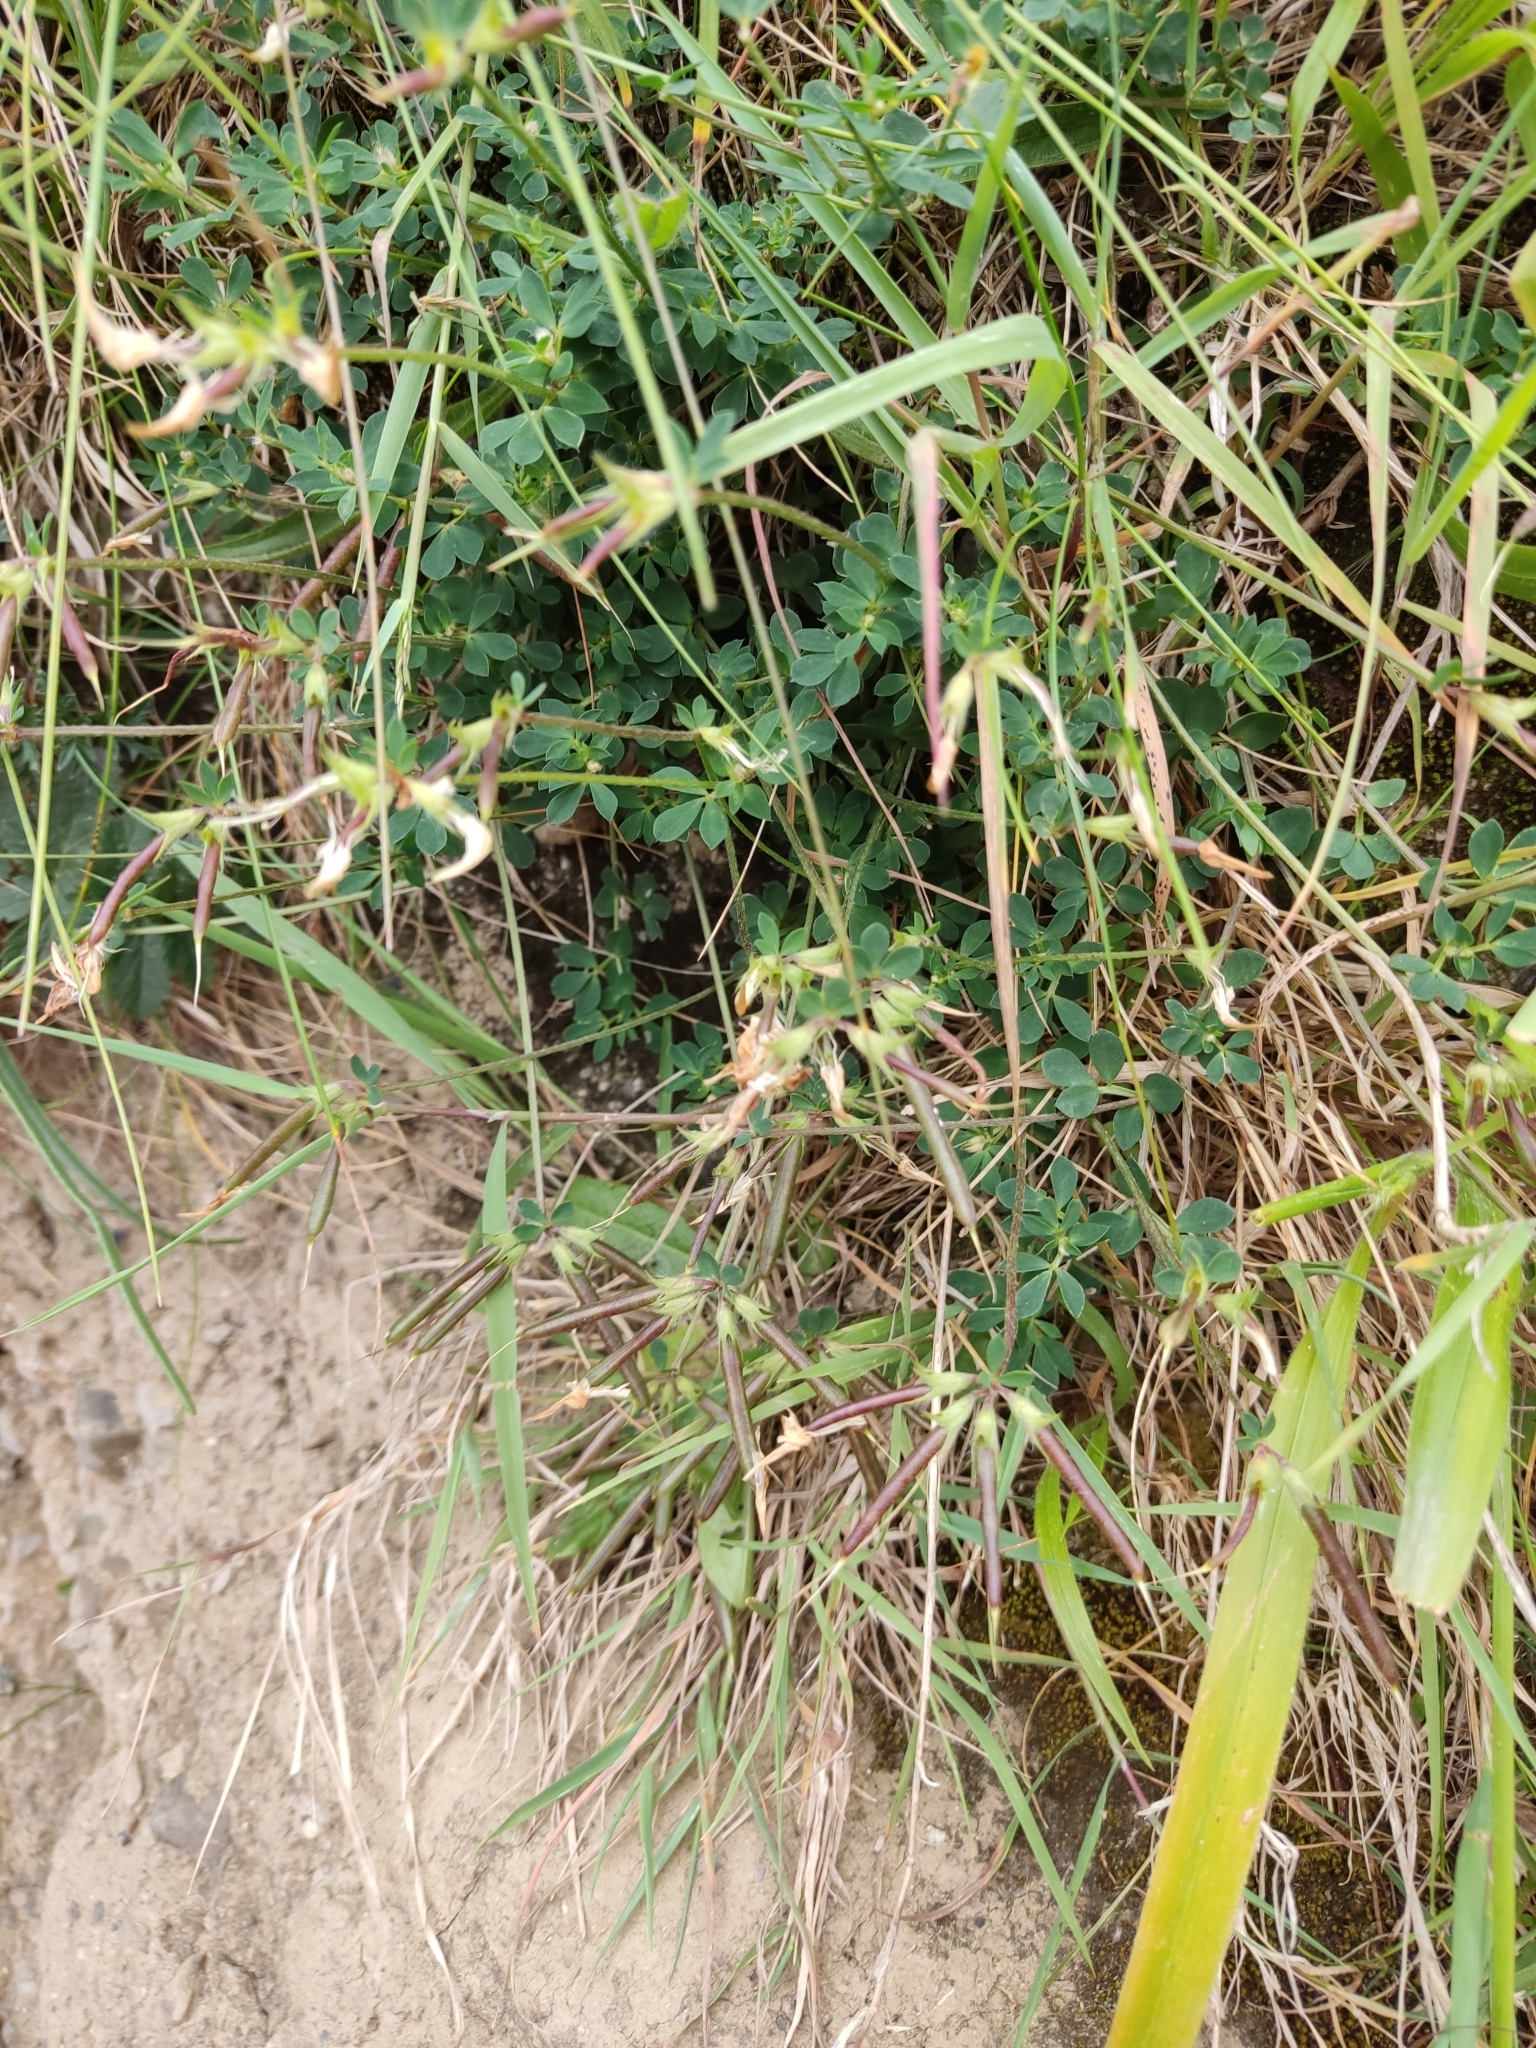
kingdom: Plantae
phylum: Tracheophyta
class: Magnoliopsida
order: Fabales
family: Fabaceae
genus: Lotus
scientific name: Lotus corniculatus
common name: Common bird's-foot-trefoil
